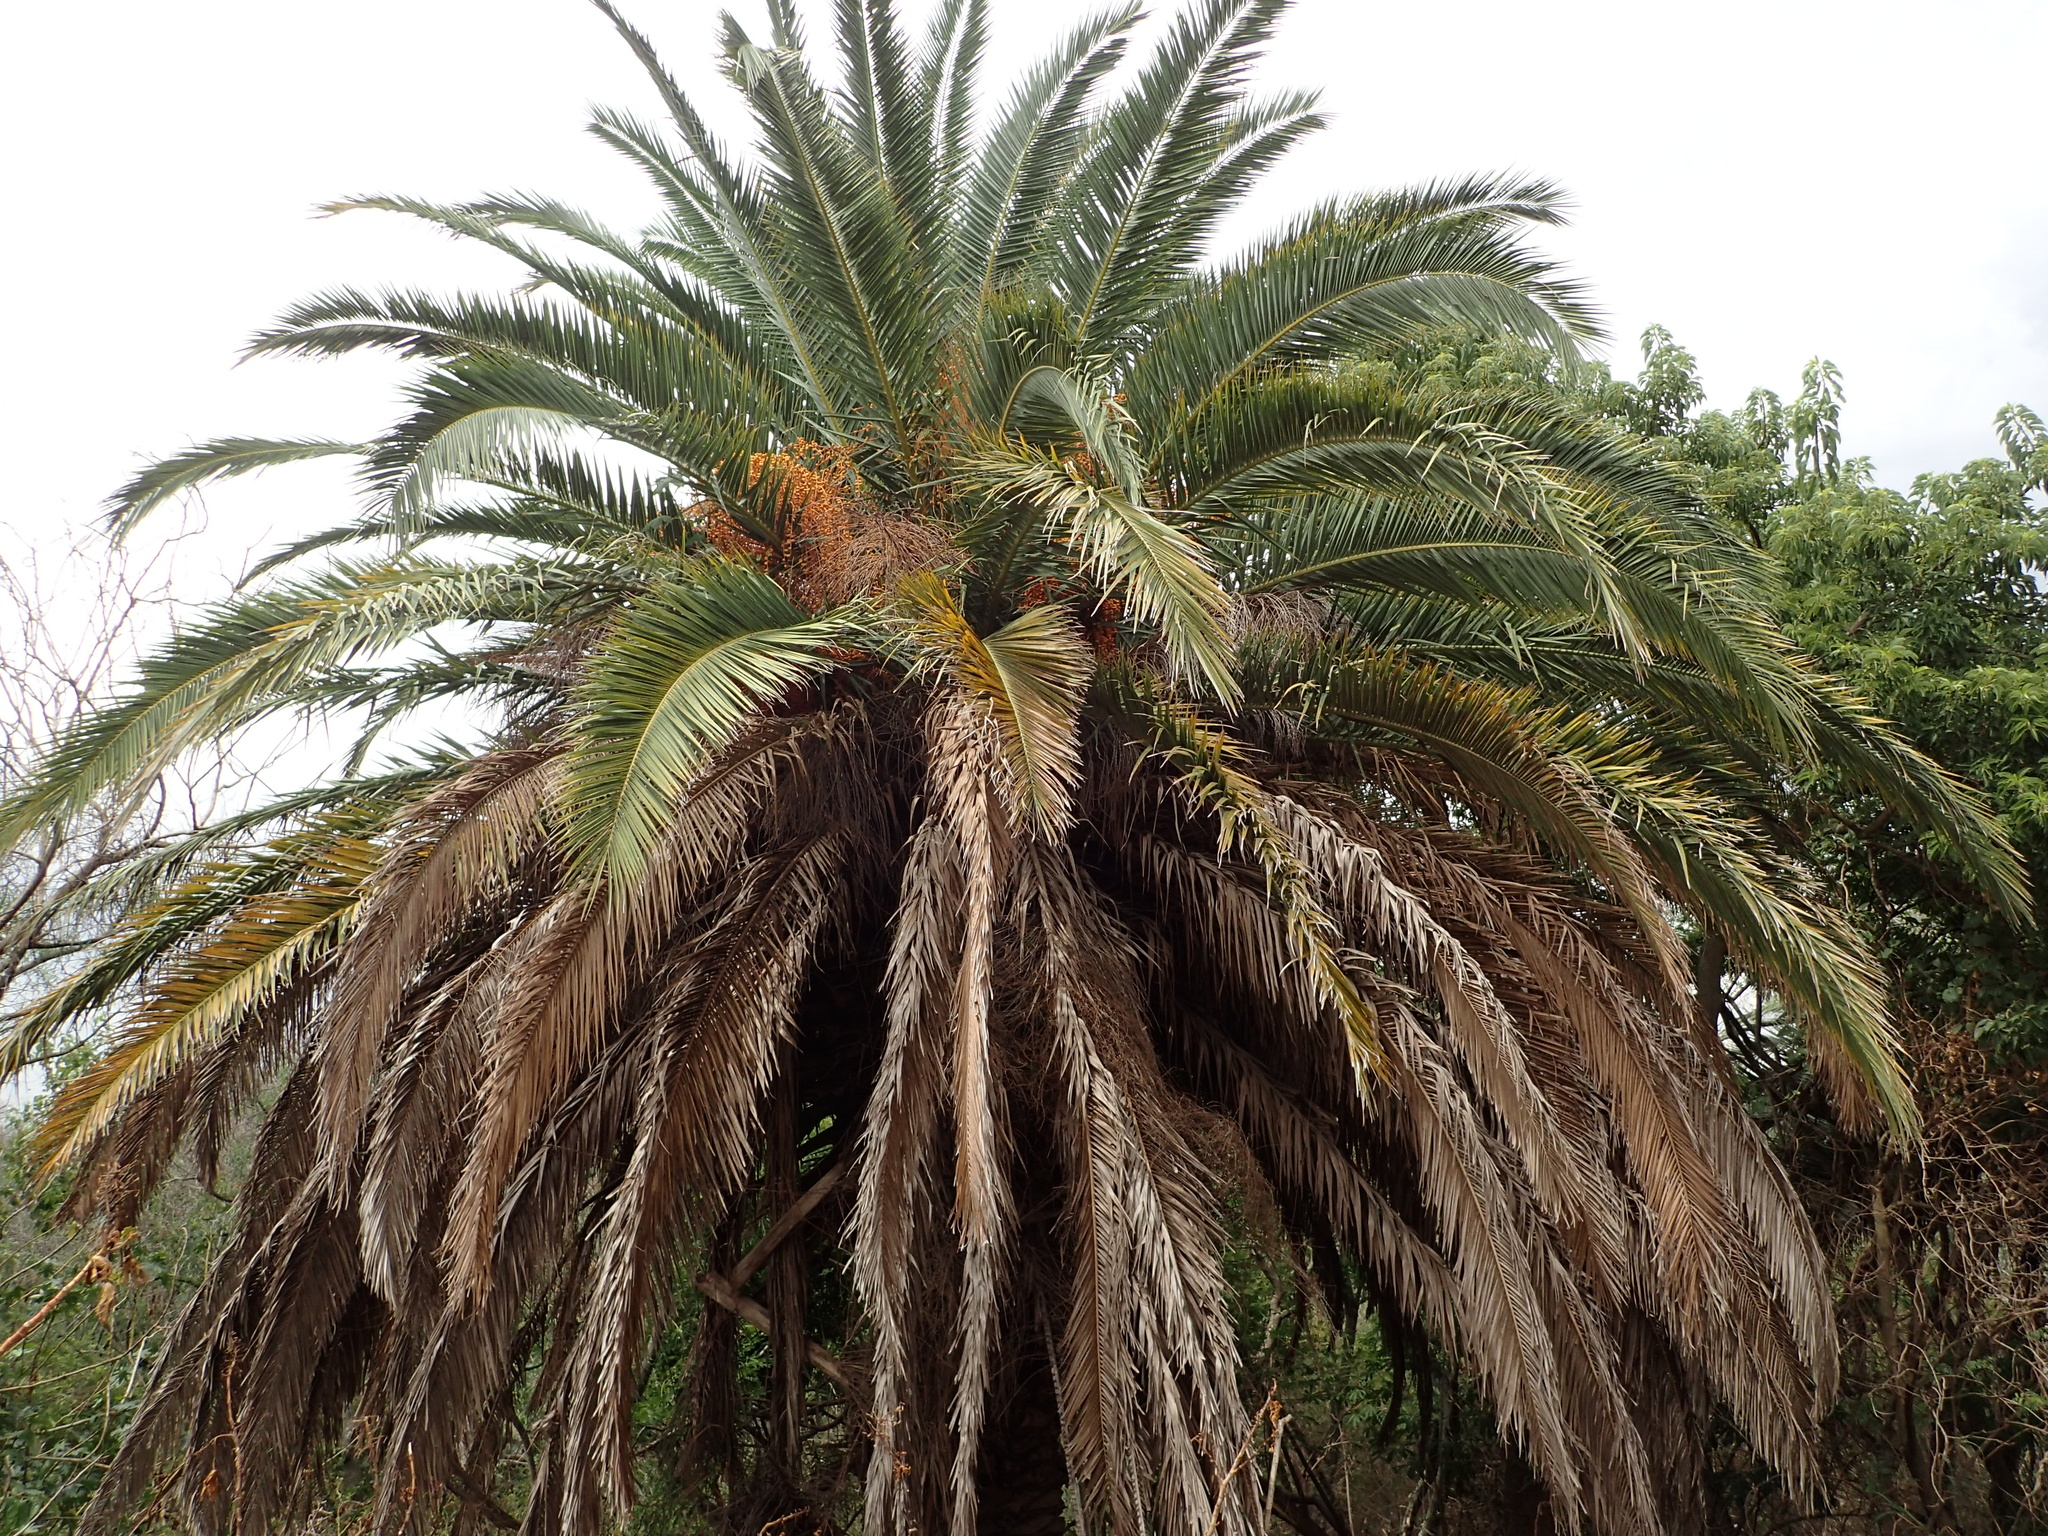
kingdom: Plantae
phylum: Tracheophyta
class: Liliopsida
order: Arecales
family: Arecaceae
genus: Phoenix
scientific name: Phoenix canariensis
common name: Canary island date palm
